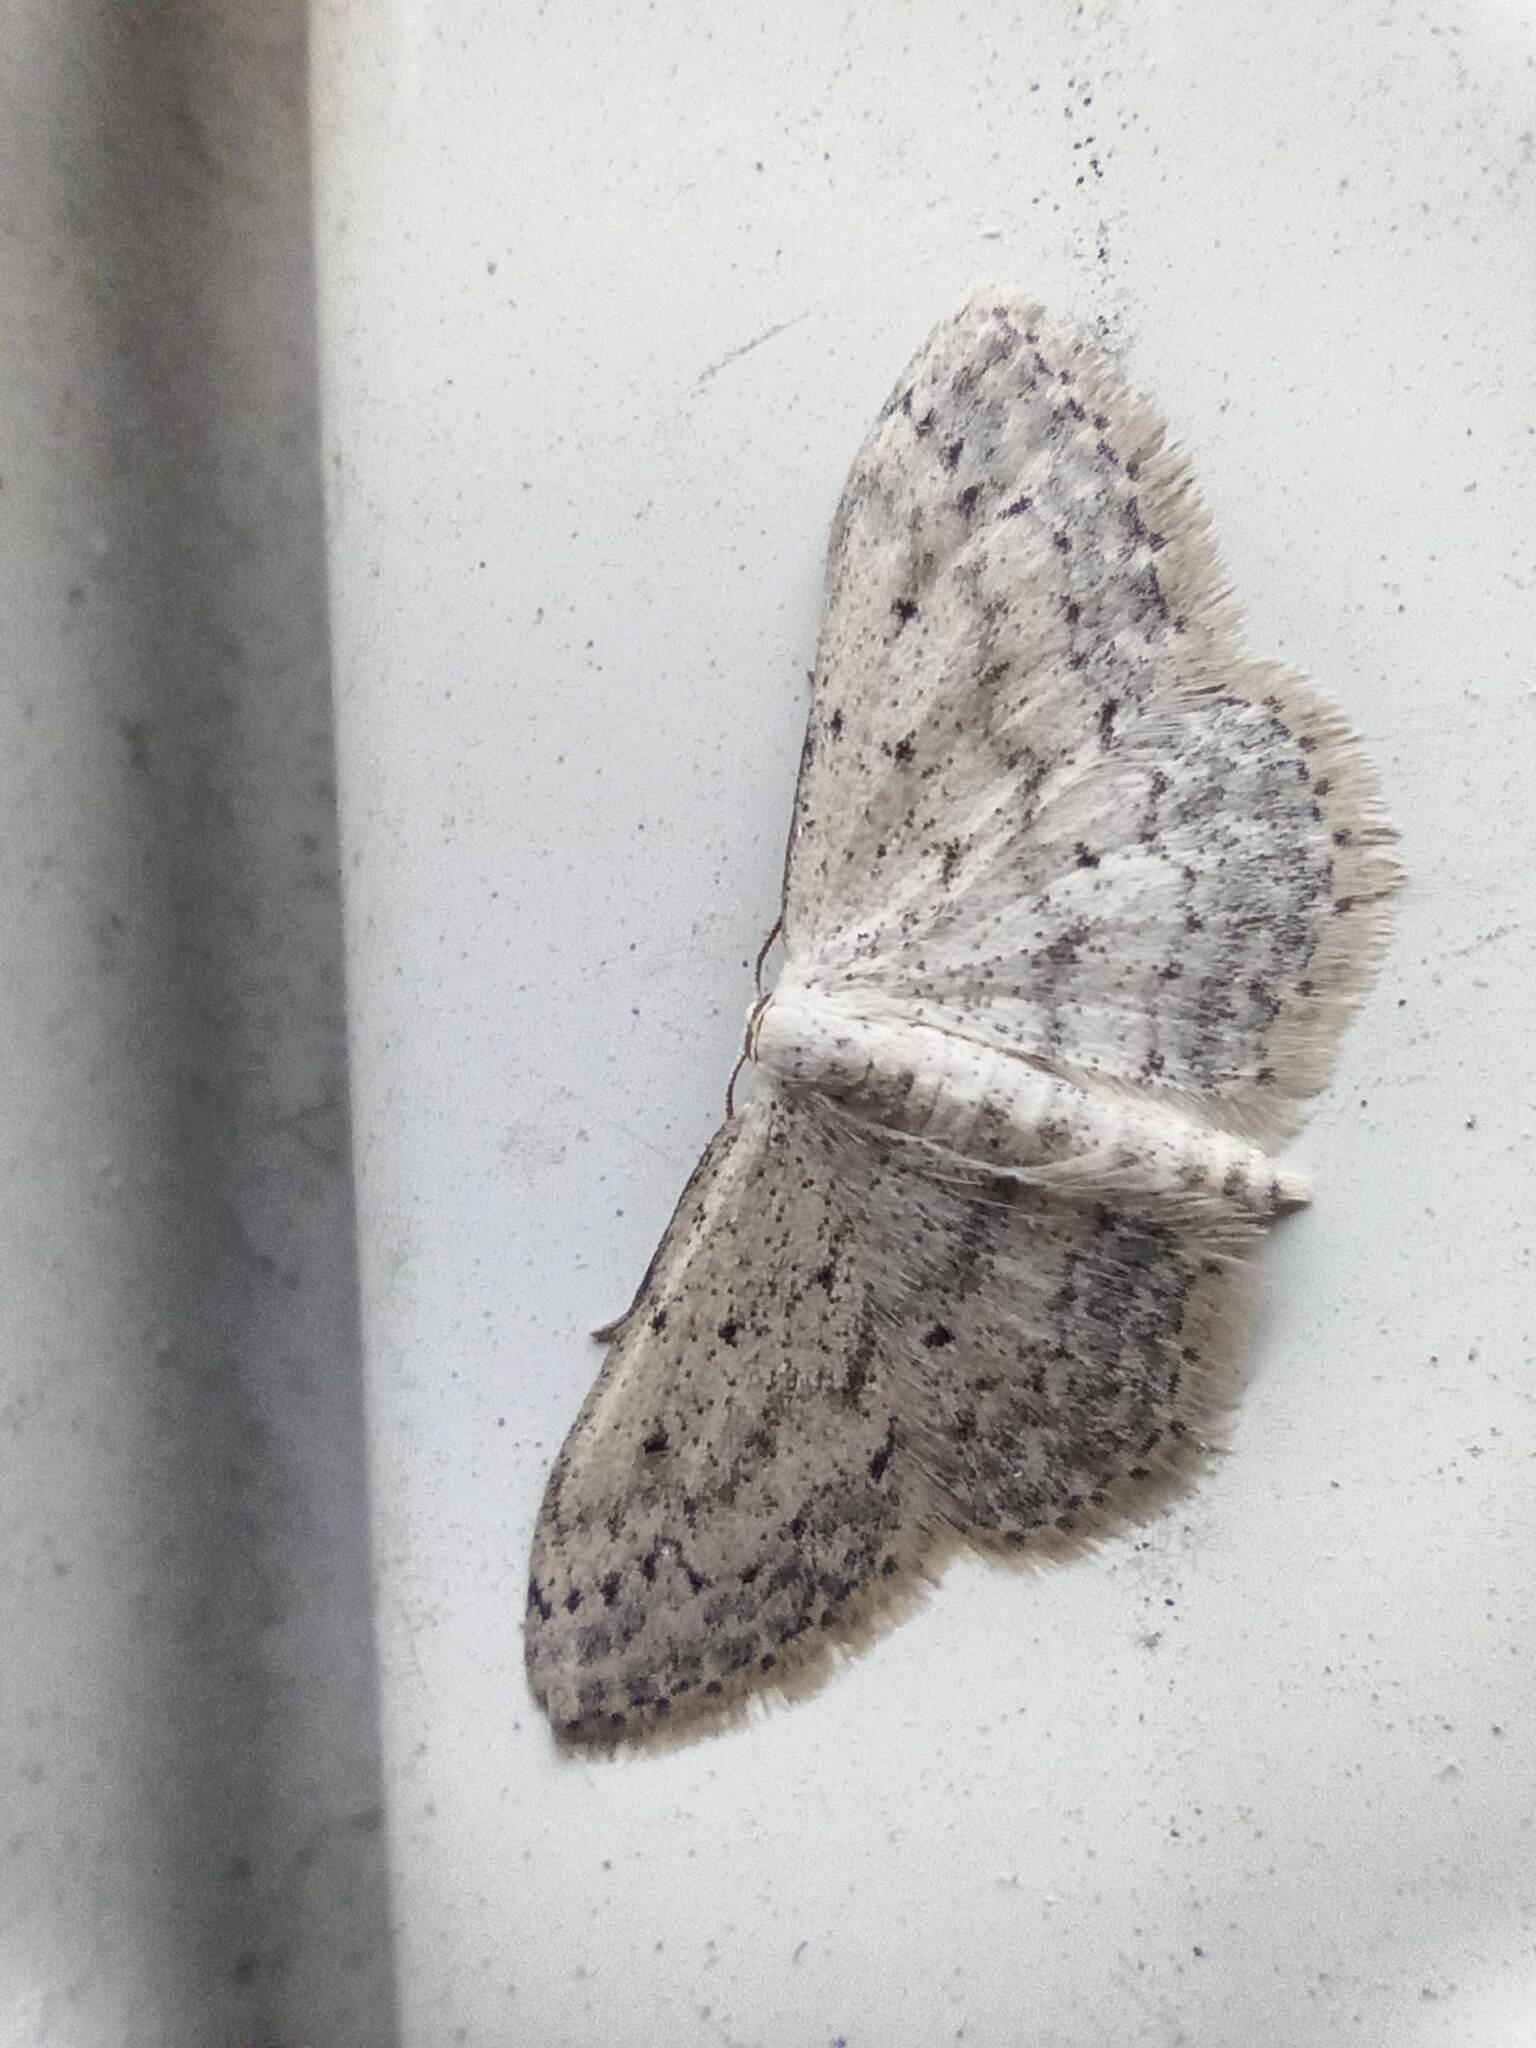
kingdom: Animalia
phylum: Arthropoda
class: Insecta
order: Lepidoptera
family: Geometridae
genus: Idaea
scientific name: Idaea seriata
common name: Small dusty wave
